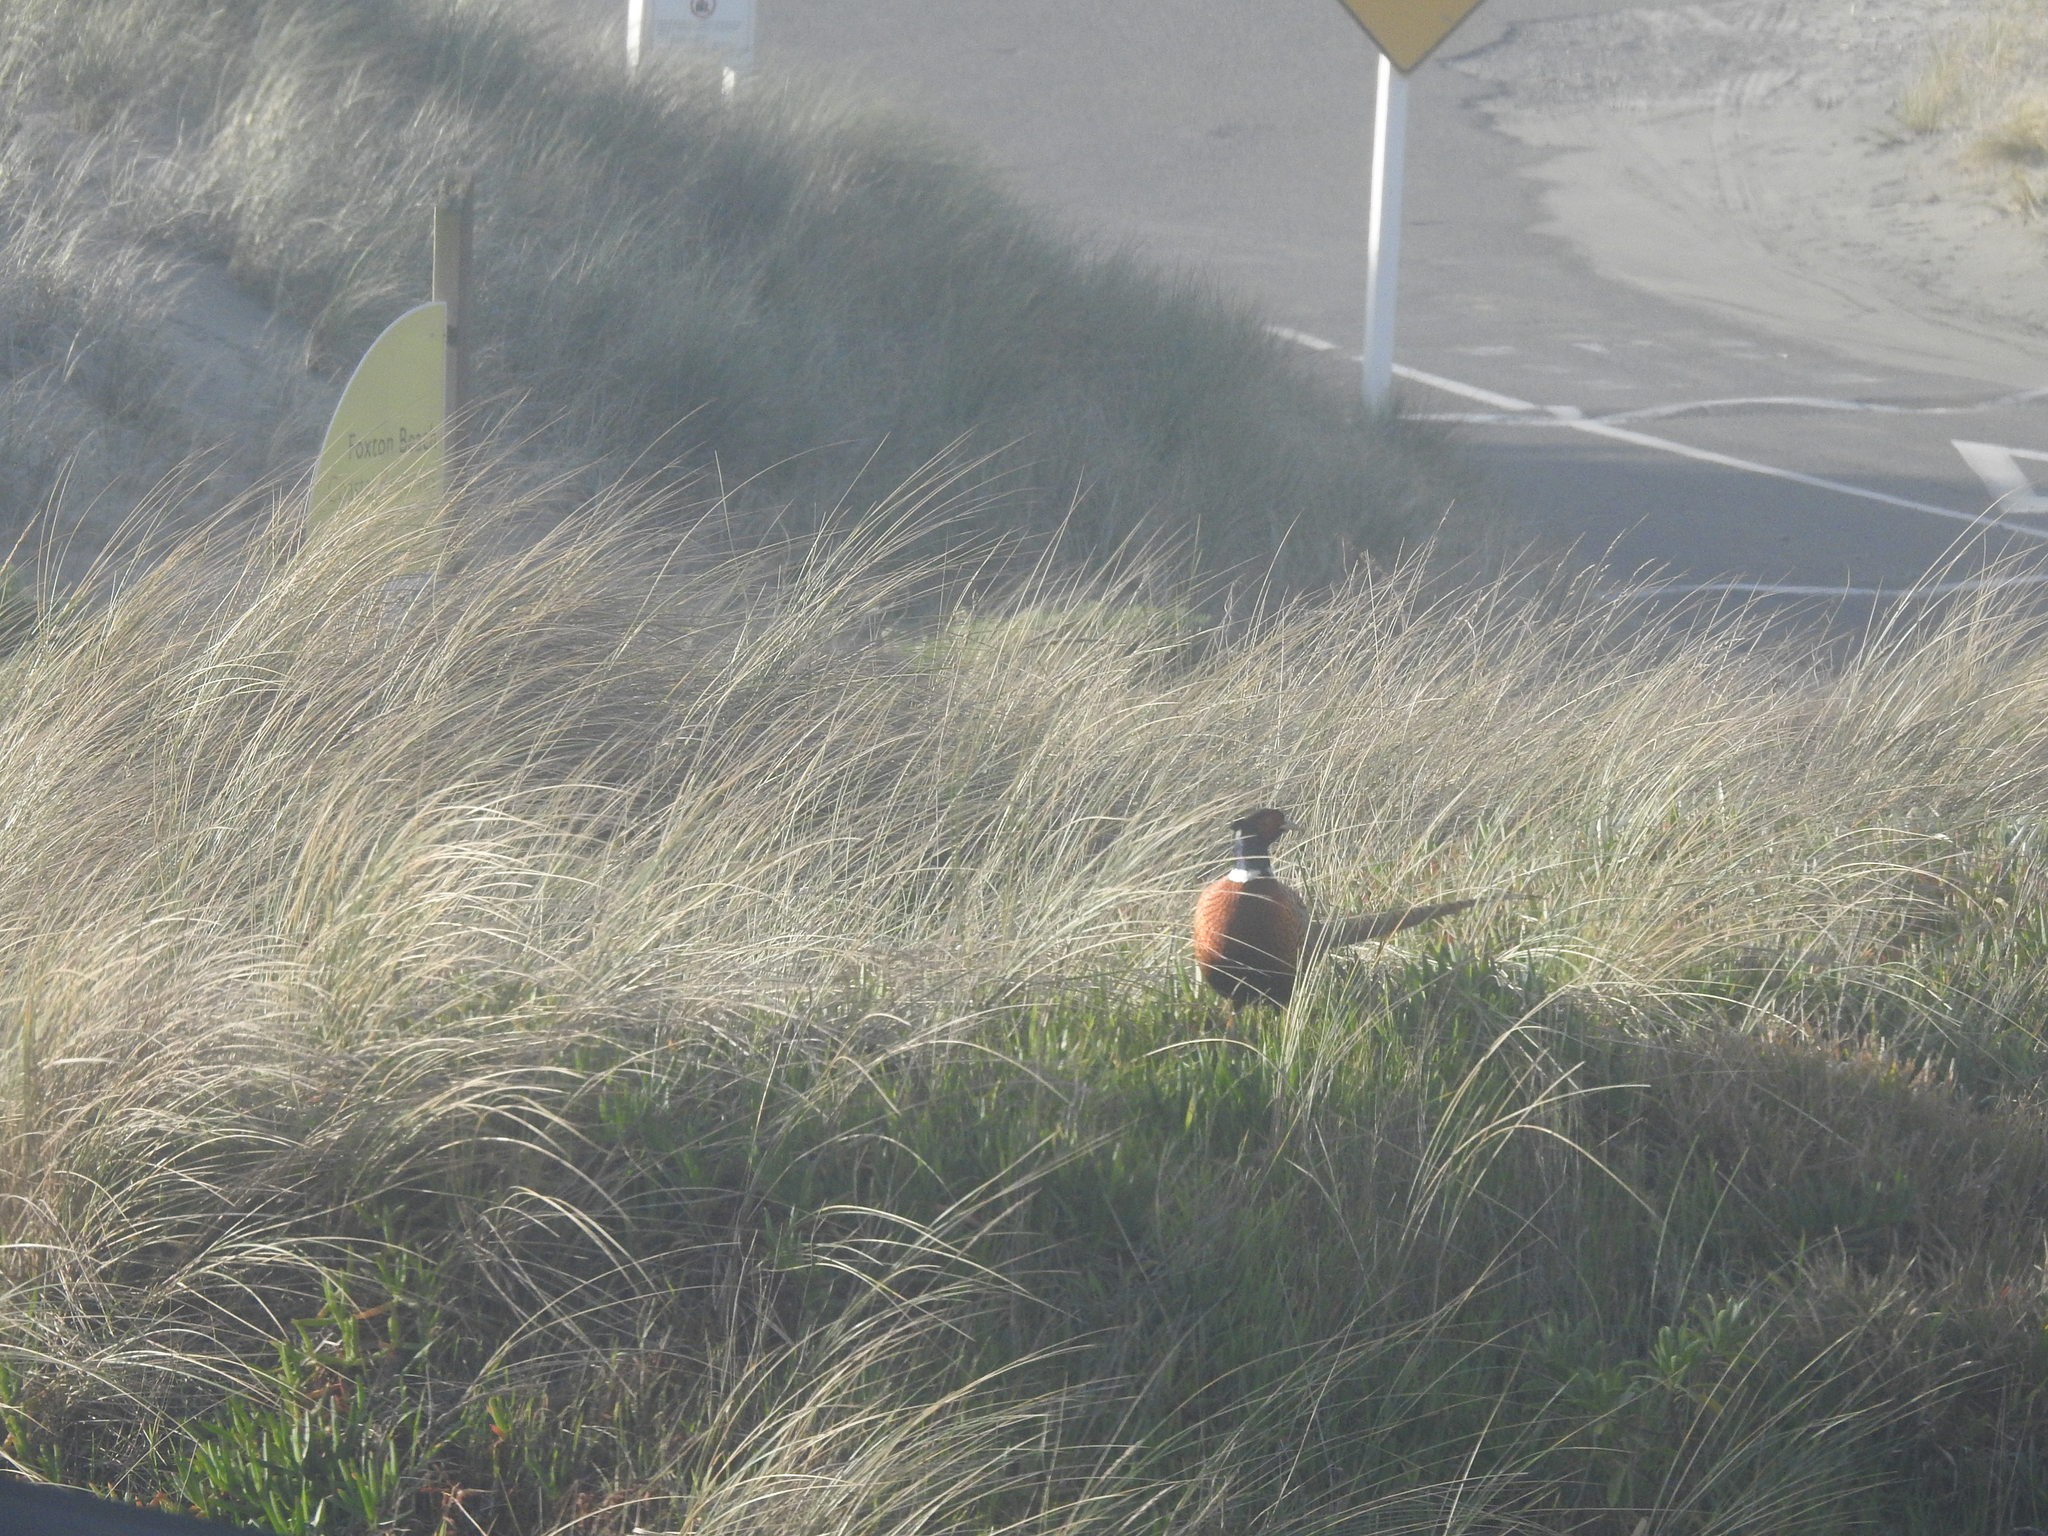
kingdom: Animalia
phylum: Chordata
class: Aves
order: Galliformes
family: Phasianidae
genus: Phasianus
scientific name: Phasianus colchicus
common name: Common pheasant
